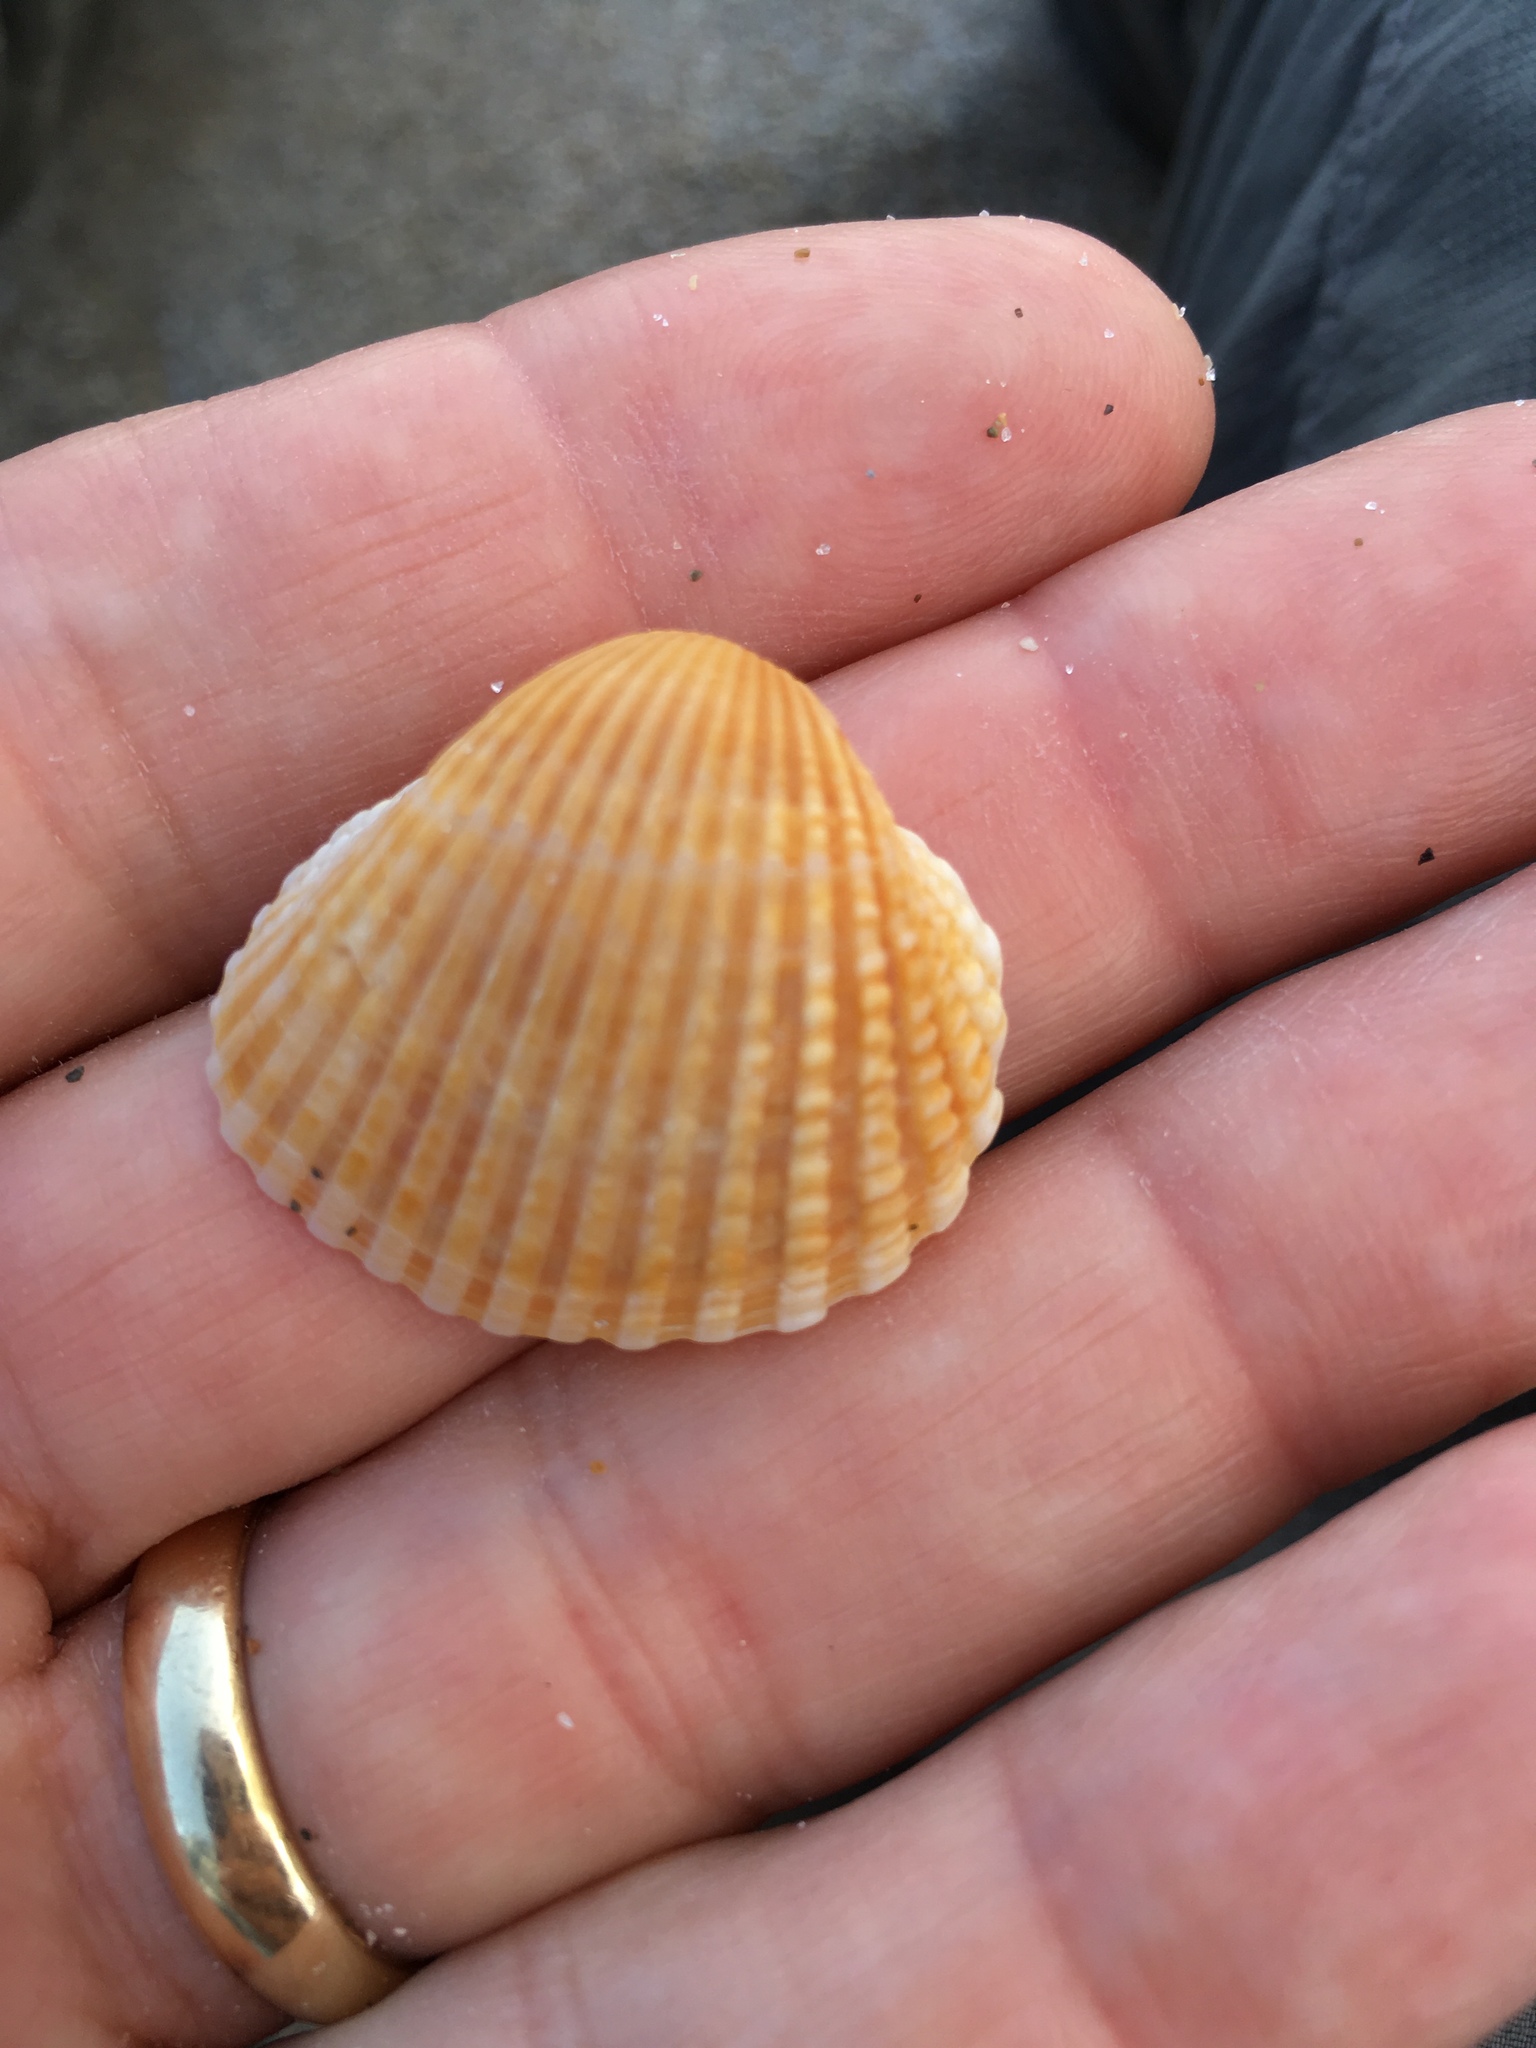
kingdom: Animalia
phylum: Mollusca
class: Bivalvia
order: Arcida
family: Arcidae
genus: Anadara
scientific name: Anadara brasiliana
